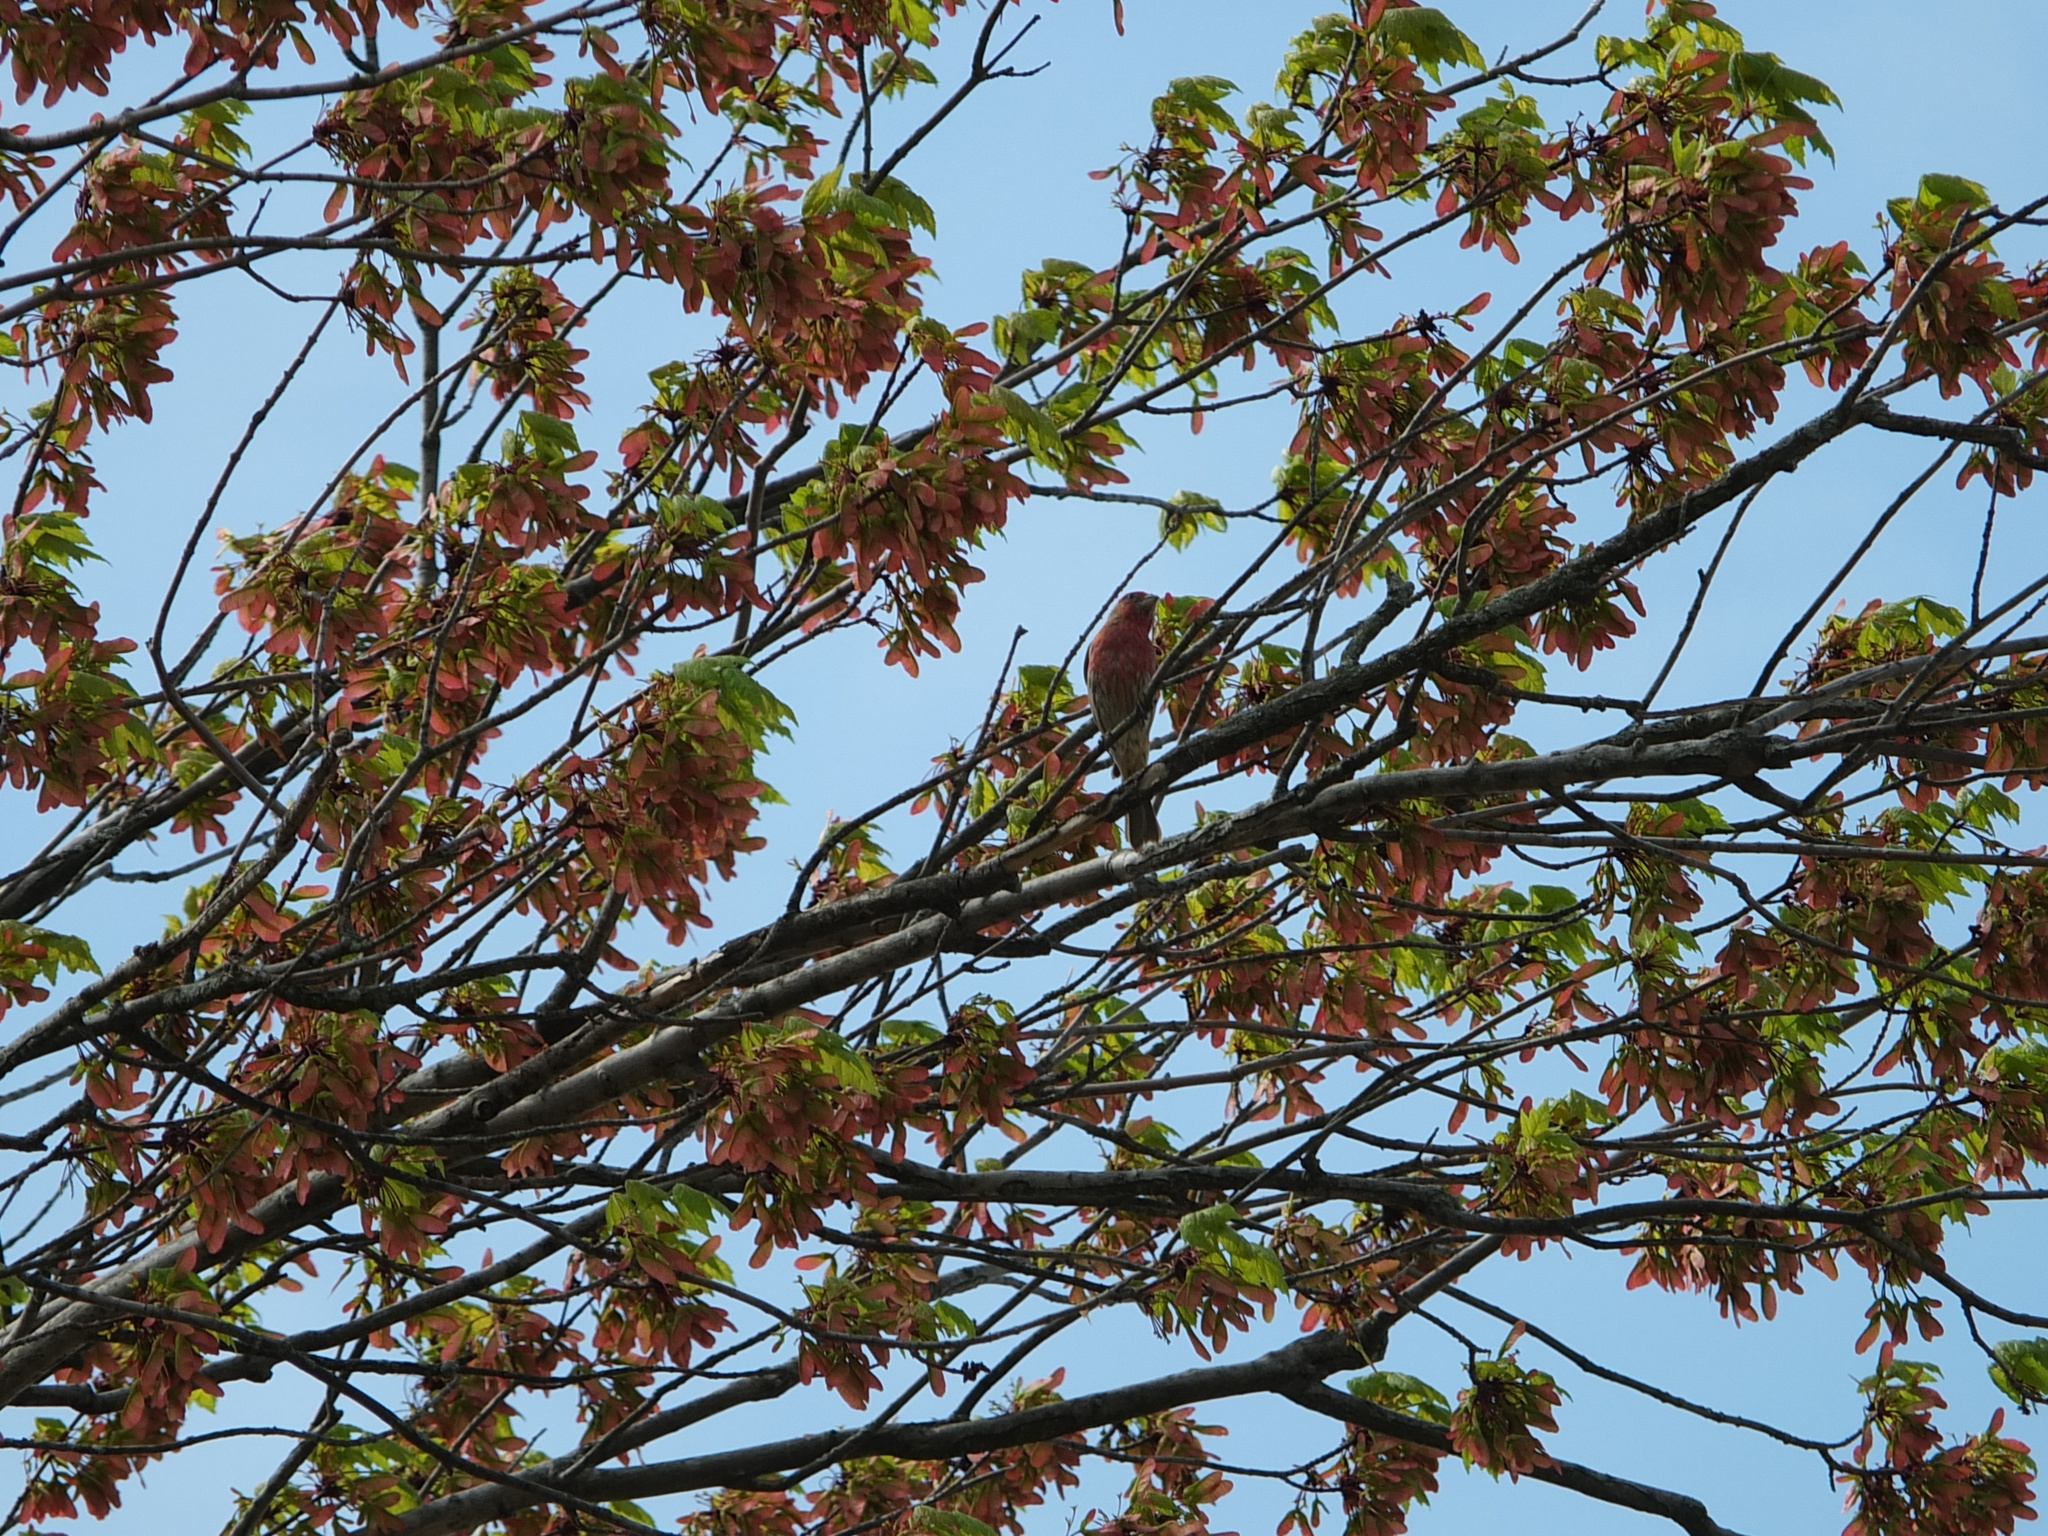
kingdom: Animalia
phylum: Chordata
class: Aves
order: Passeriformes
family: Fringillidae
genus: Haemorhous
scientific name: Haemorhous mexicanus
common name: House finch
